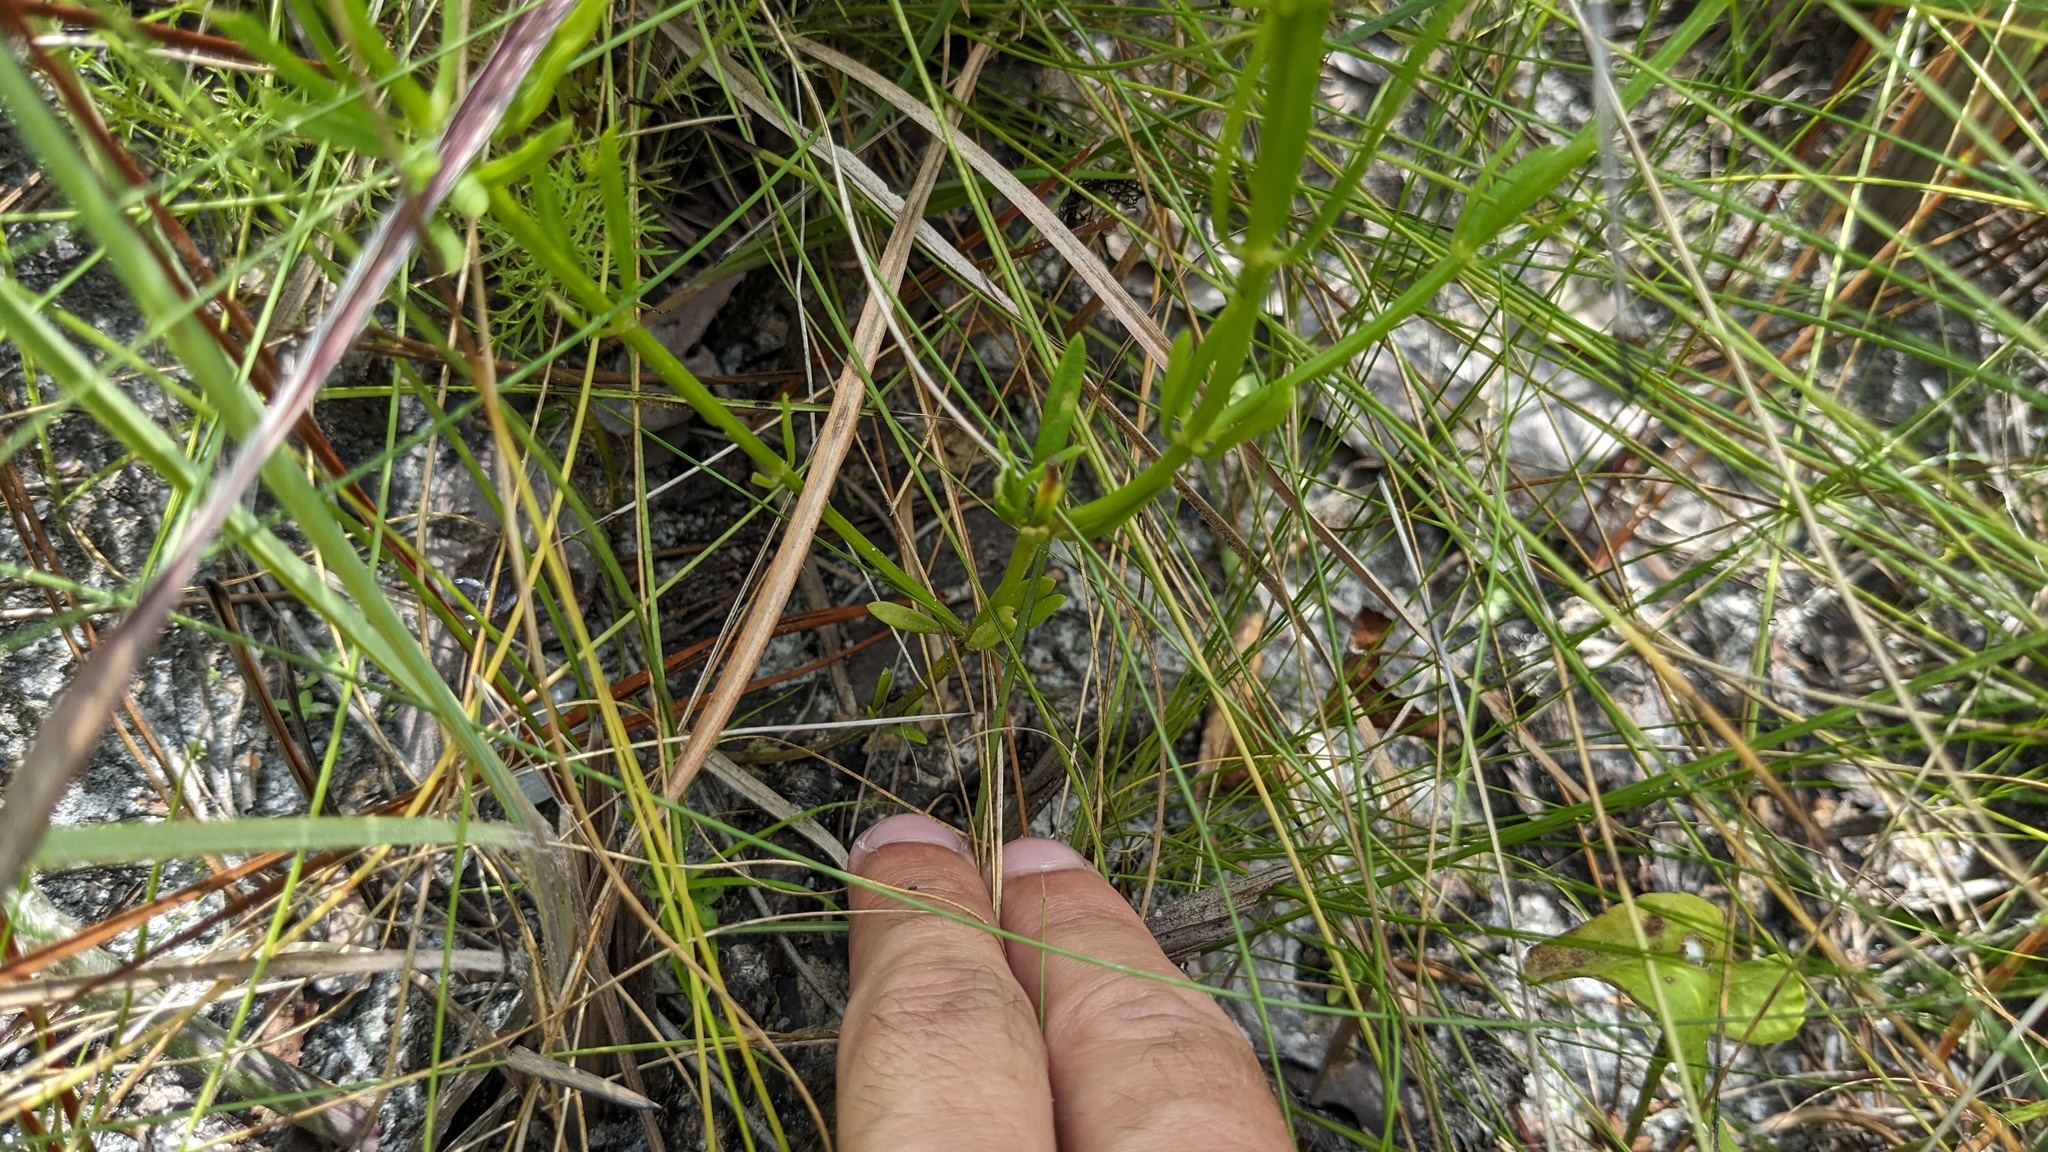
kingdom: Plantae
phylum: Tracheophyta
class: Magnoliopsida
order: Fabales
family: Polygalaceae
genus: Polygala
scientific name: Polygala cruciata
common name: Drumheads
